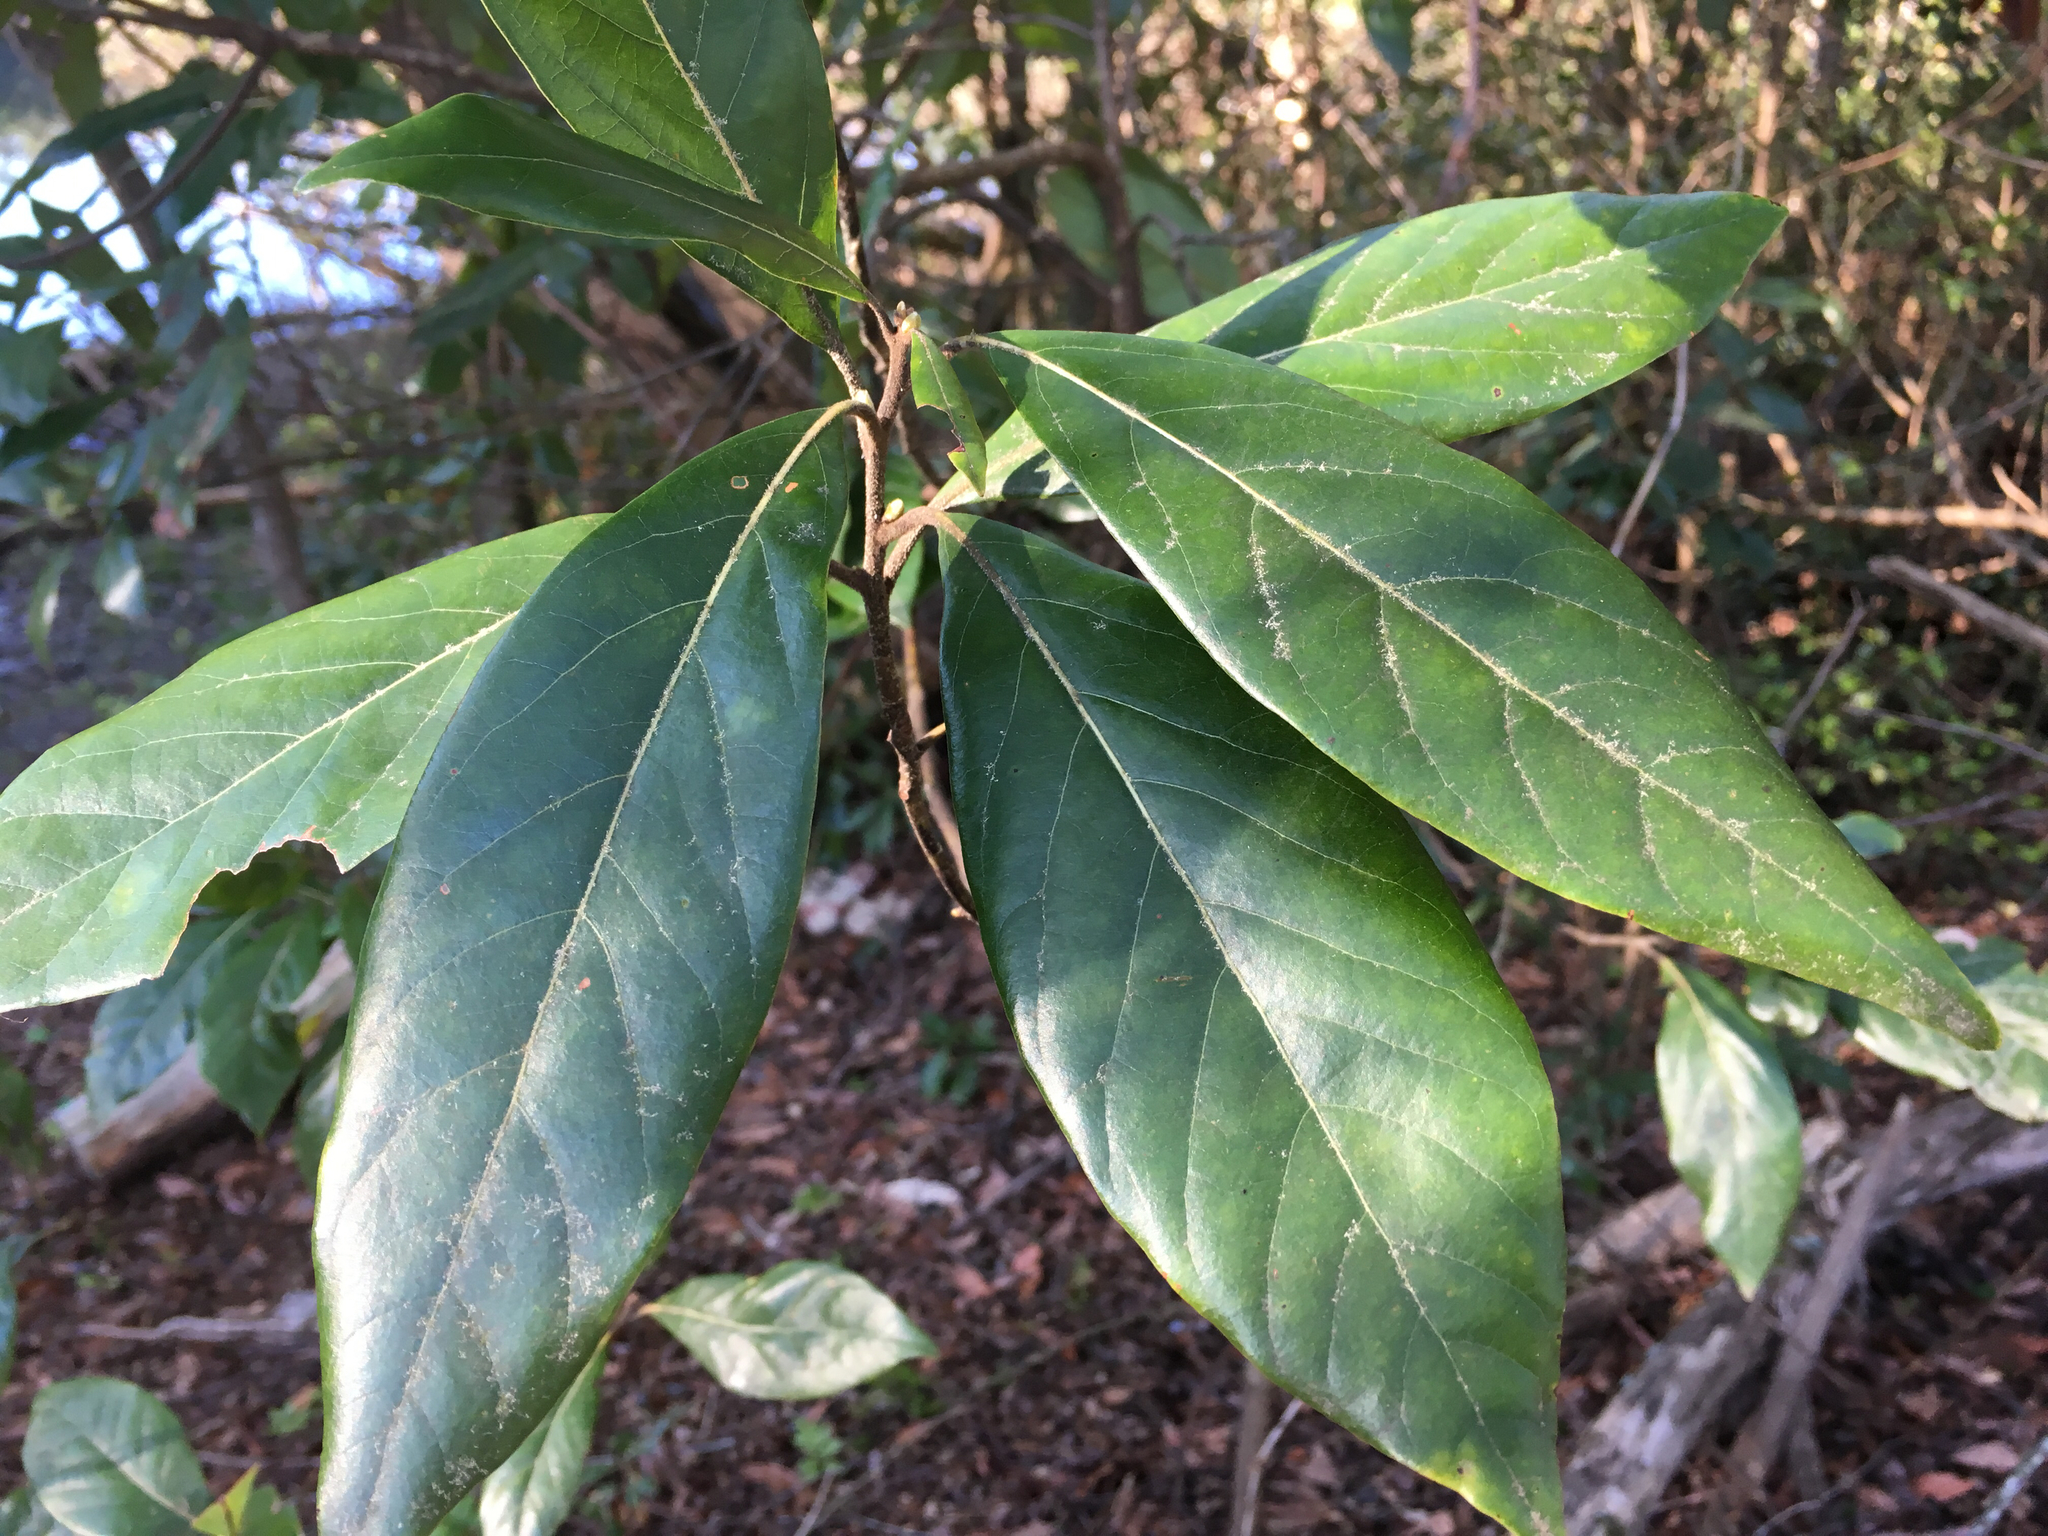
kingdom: Plantae
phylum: Tracheophyta
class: Magnoliopsida
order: Laurales
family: Lauraceae
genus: Persea
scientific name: Persea palustris
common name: Swampbay
